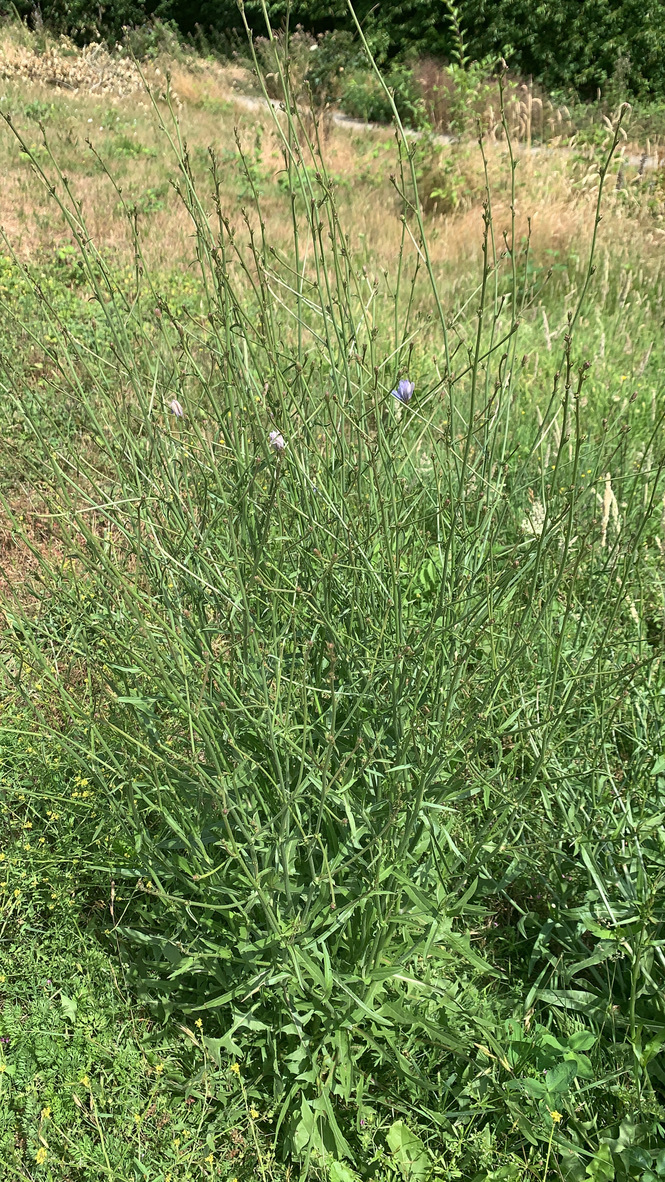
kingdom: Plantae
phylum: Tracheophyta
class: Magnoliopsida
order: Asterales
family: Asteraceae
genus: Cichorium
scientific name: Cichorium intybus
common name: Chicory
